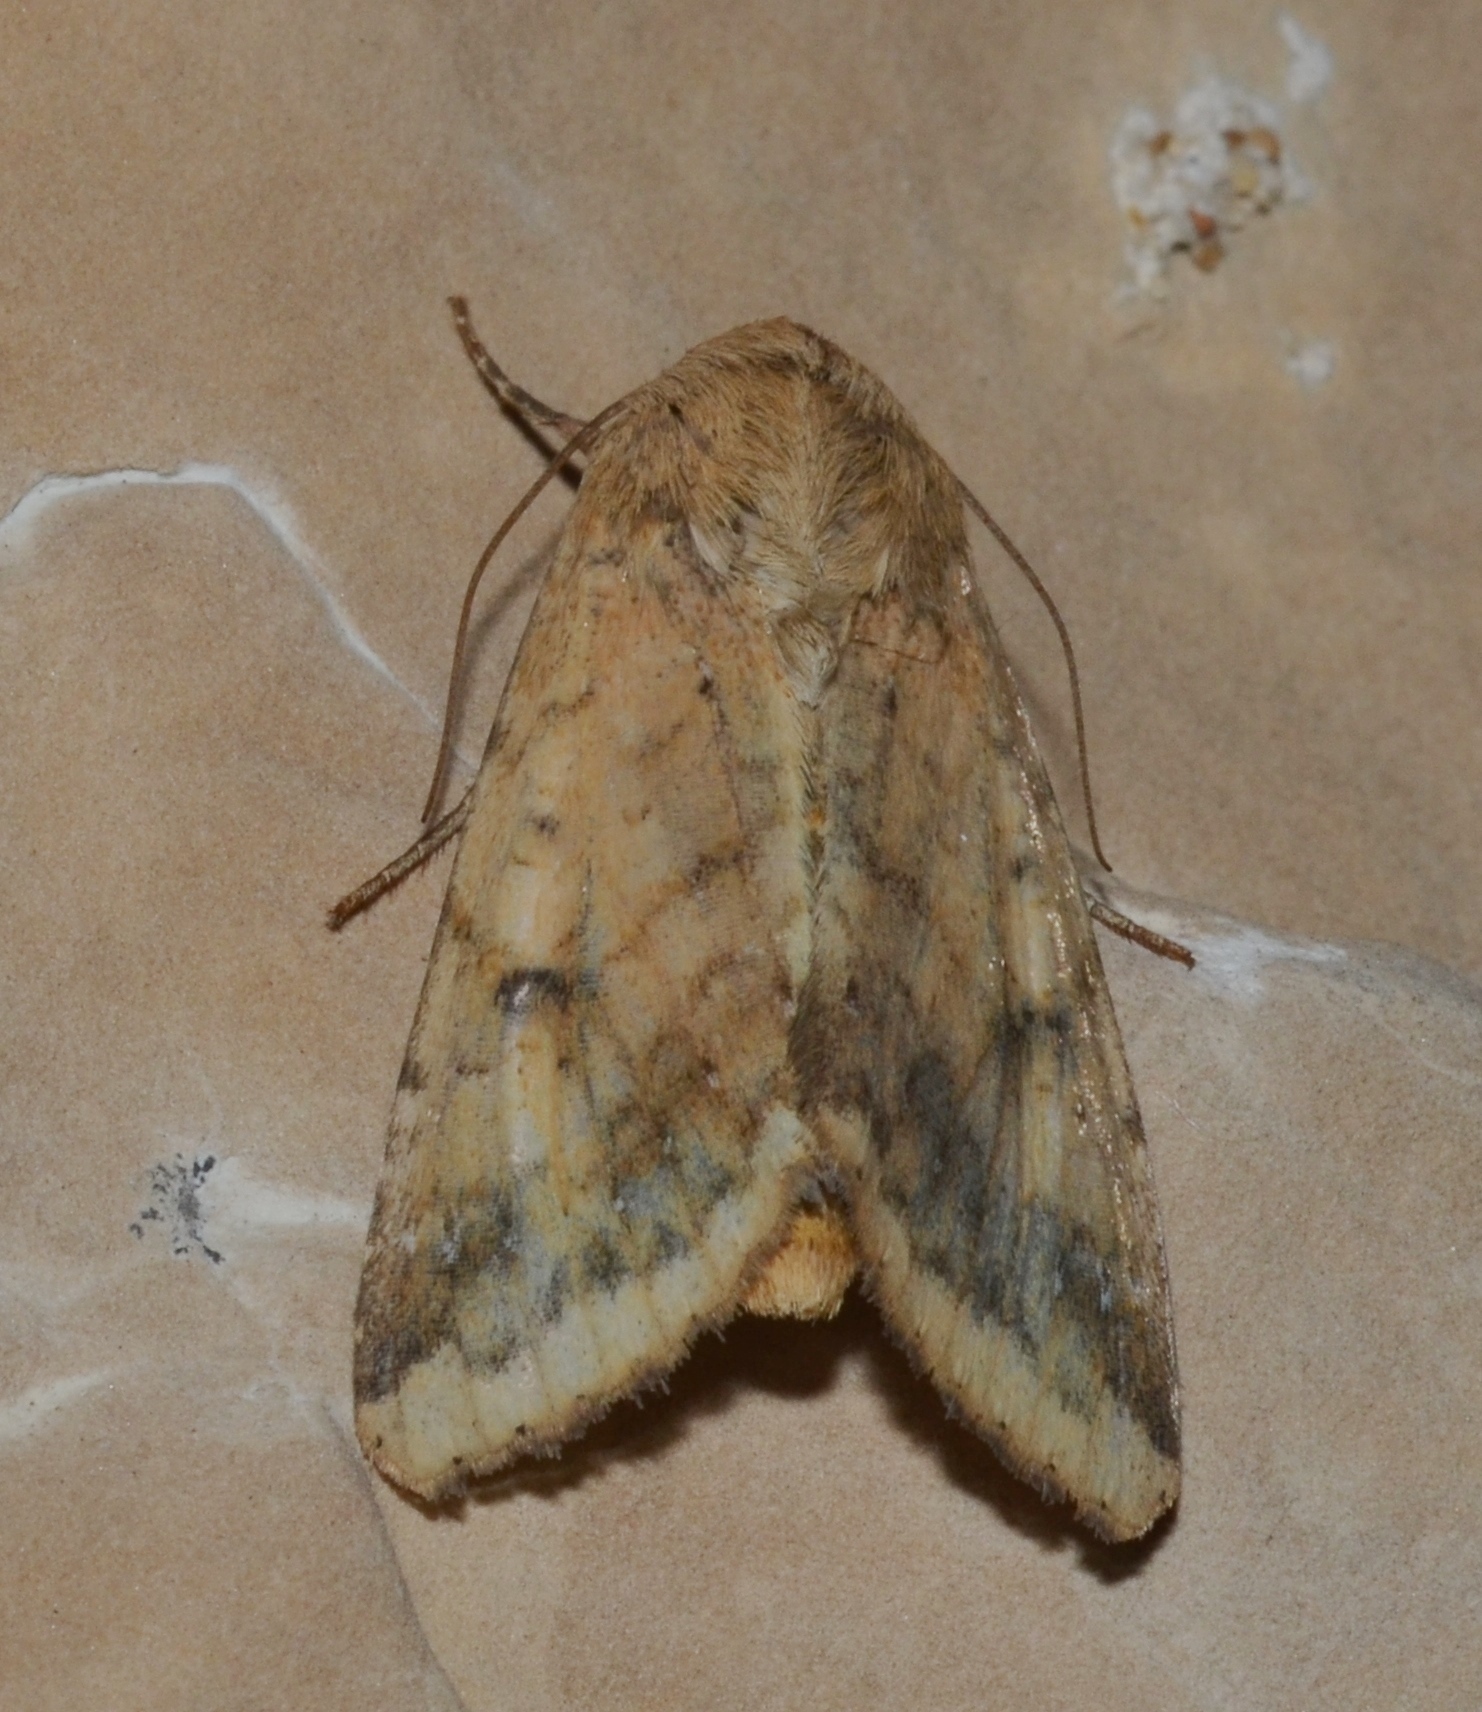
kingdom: Animalia
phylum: Arthropoda
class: Insecta
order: Lepidoptera
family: Noctuidae
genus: Helicoverpa
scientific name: Helicoverpa zea
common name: Bollworm
